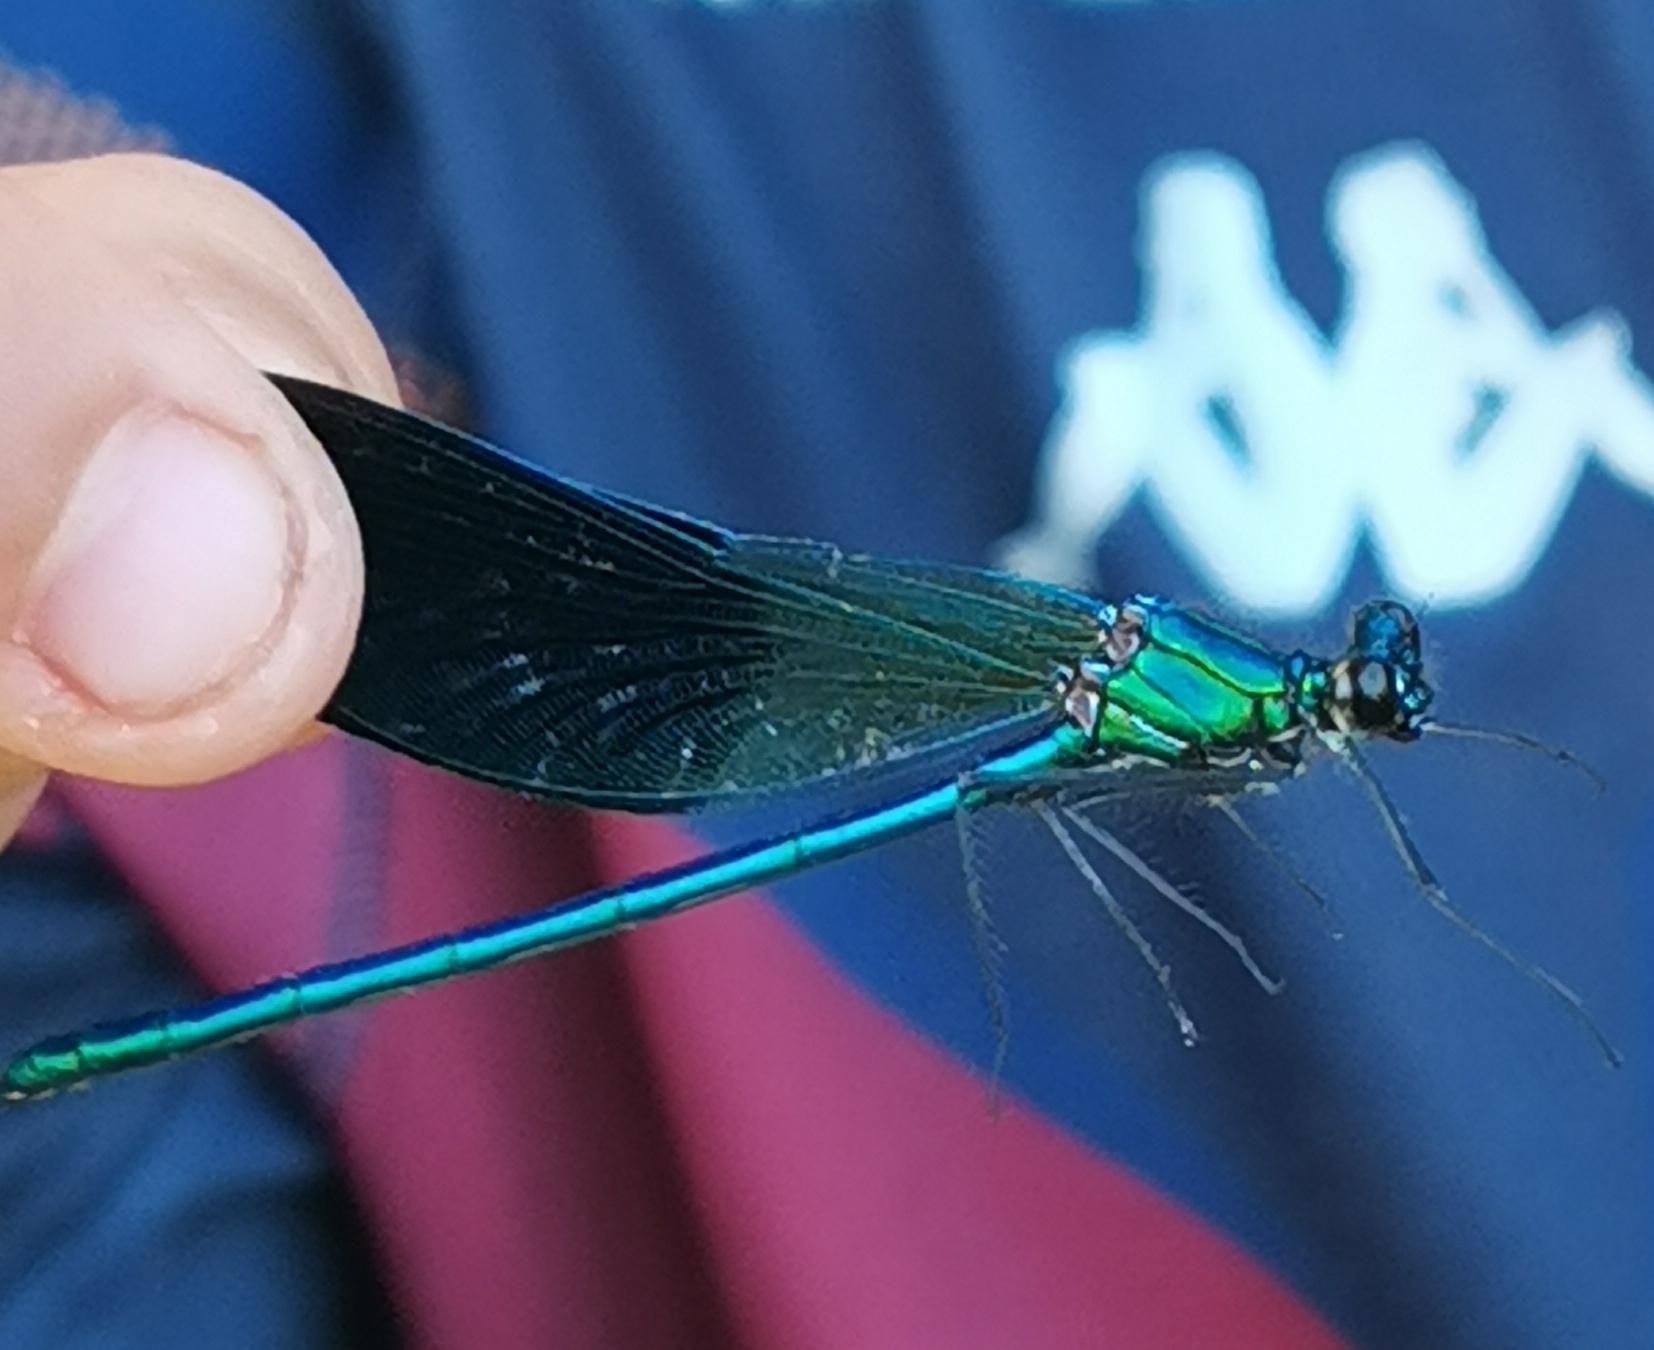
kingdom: Animalia
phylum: Arthropoda
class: Insecta
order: Odonata
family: Calopterygidae
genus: Calopteryx
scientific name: Calopteryx xanthostoma
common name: Western demoiselle
